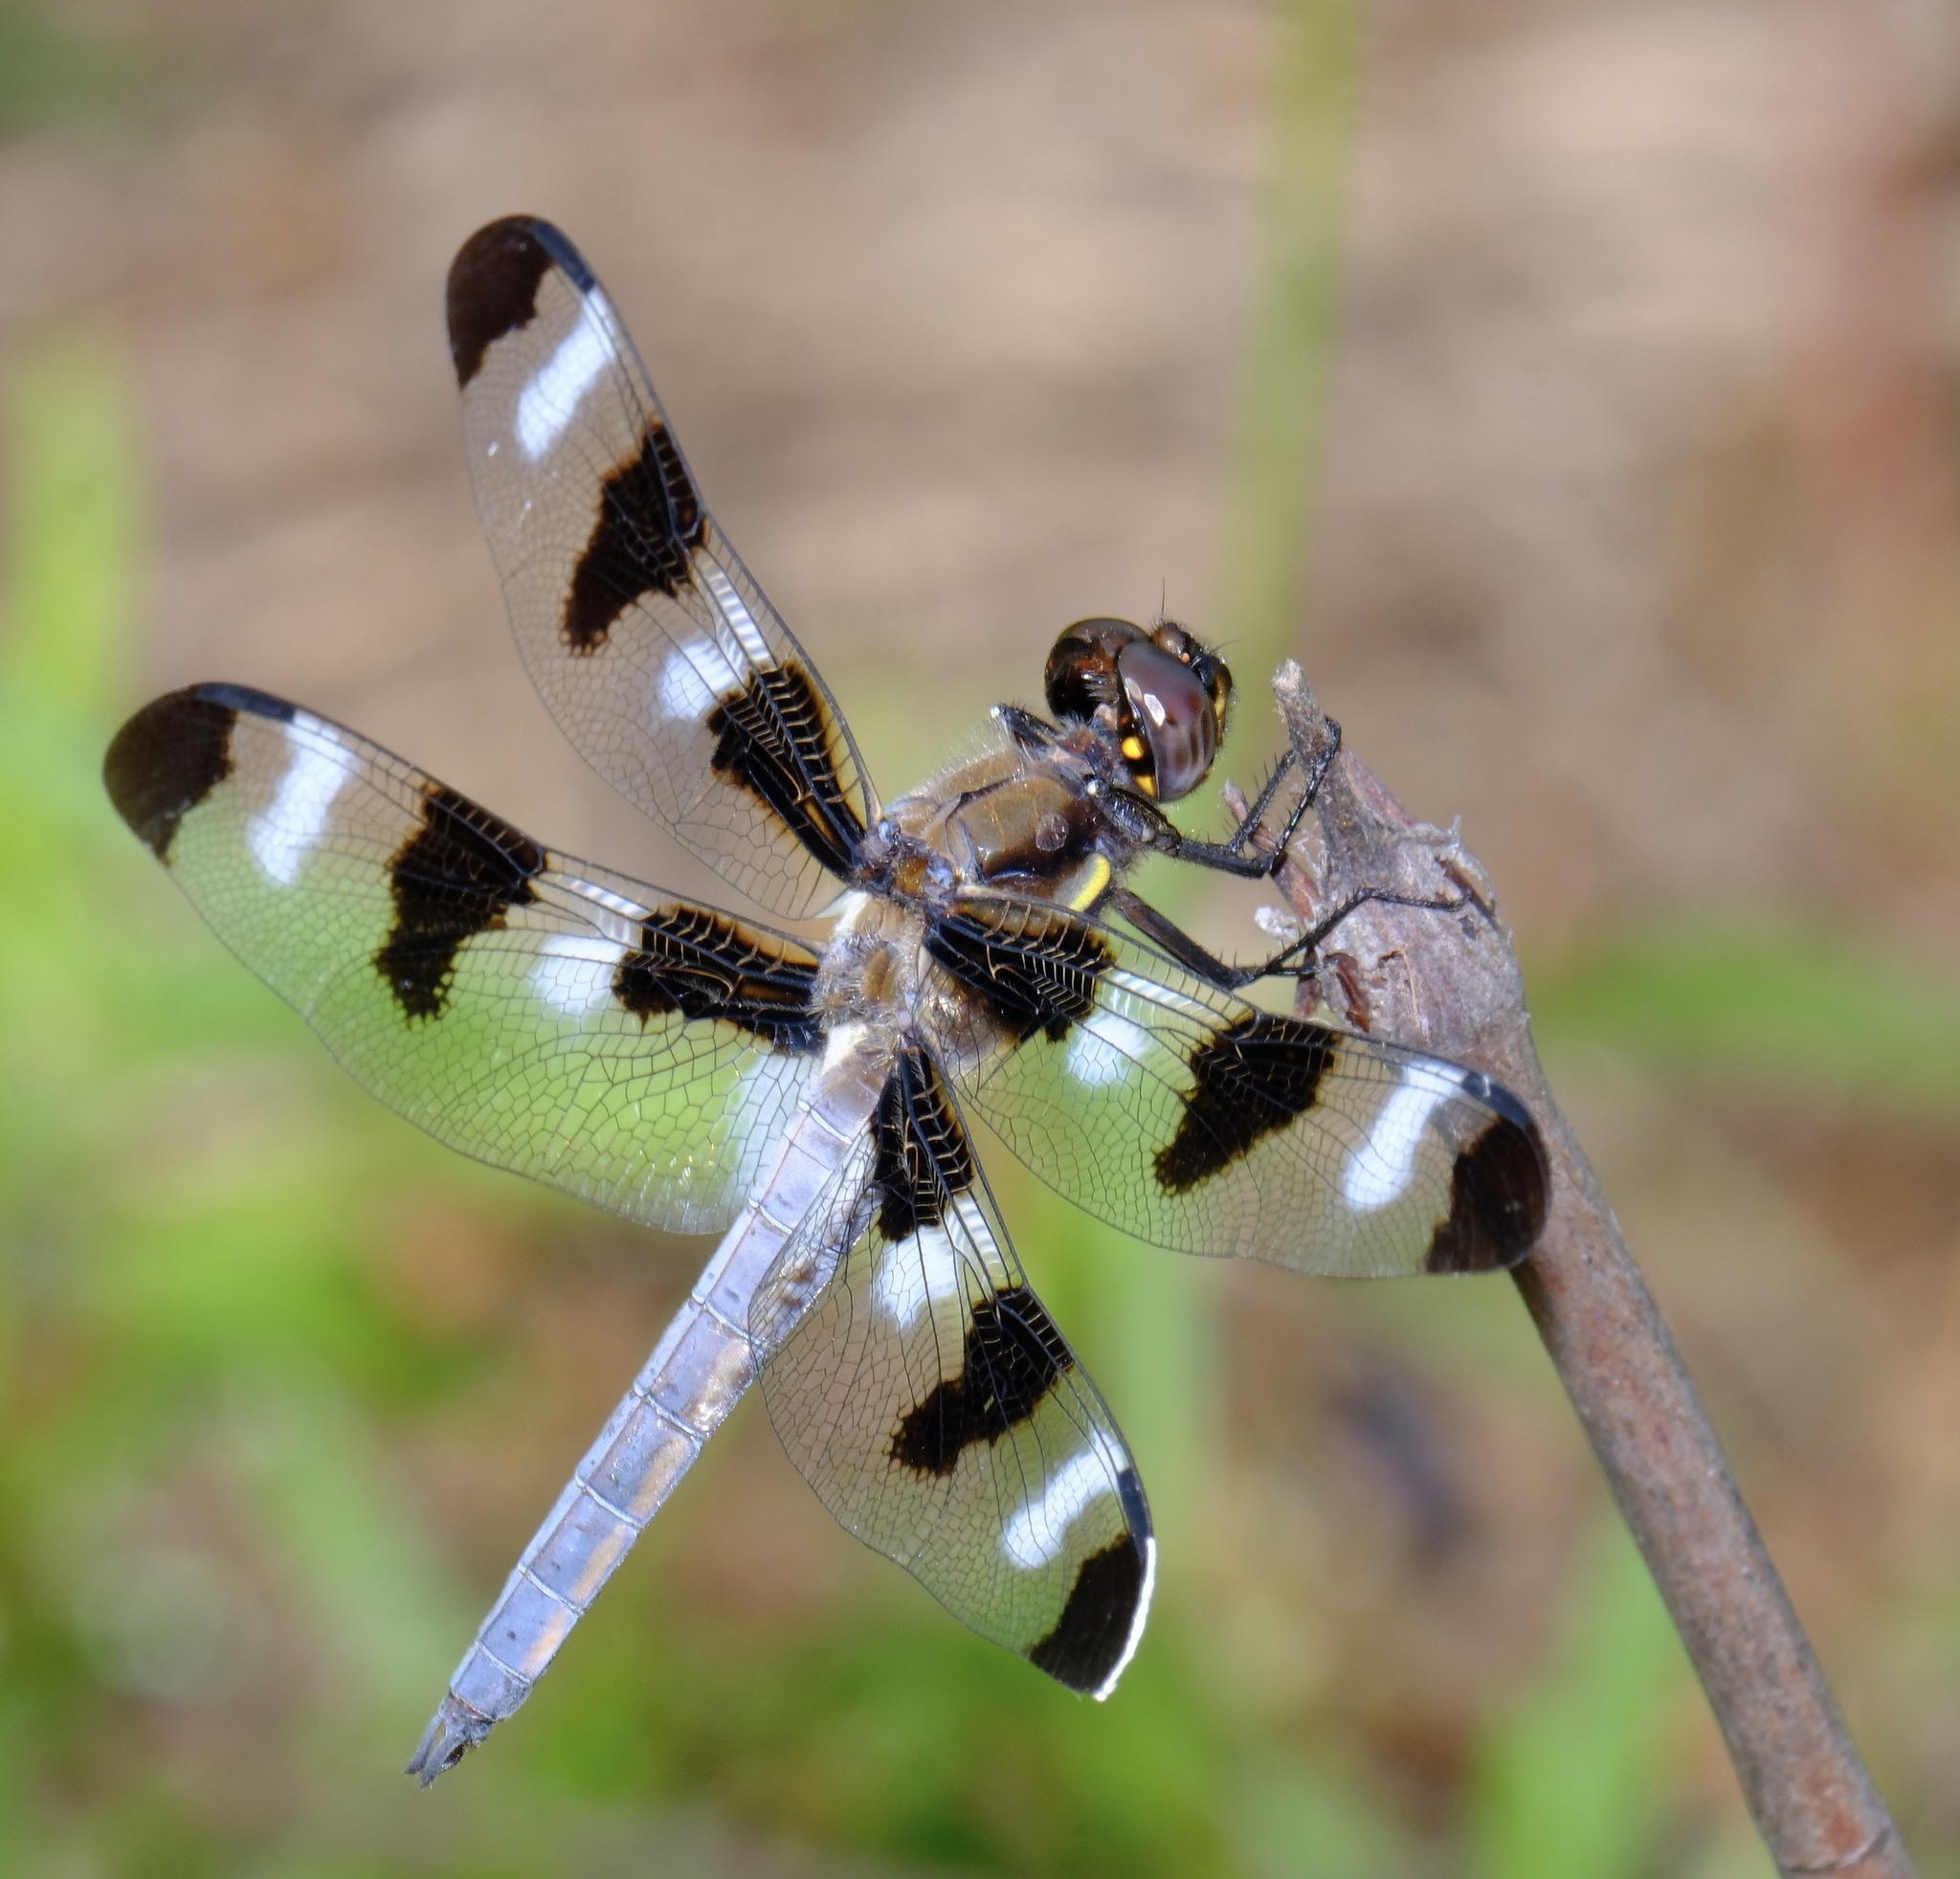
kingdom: Animalia
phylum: Arthropoda
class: Insecta
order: Odonata
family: Libellulidae
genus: Libellula
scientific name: Libellula pulchella
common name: Twelve-spotted skimmer
